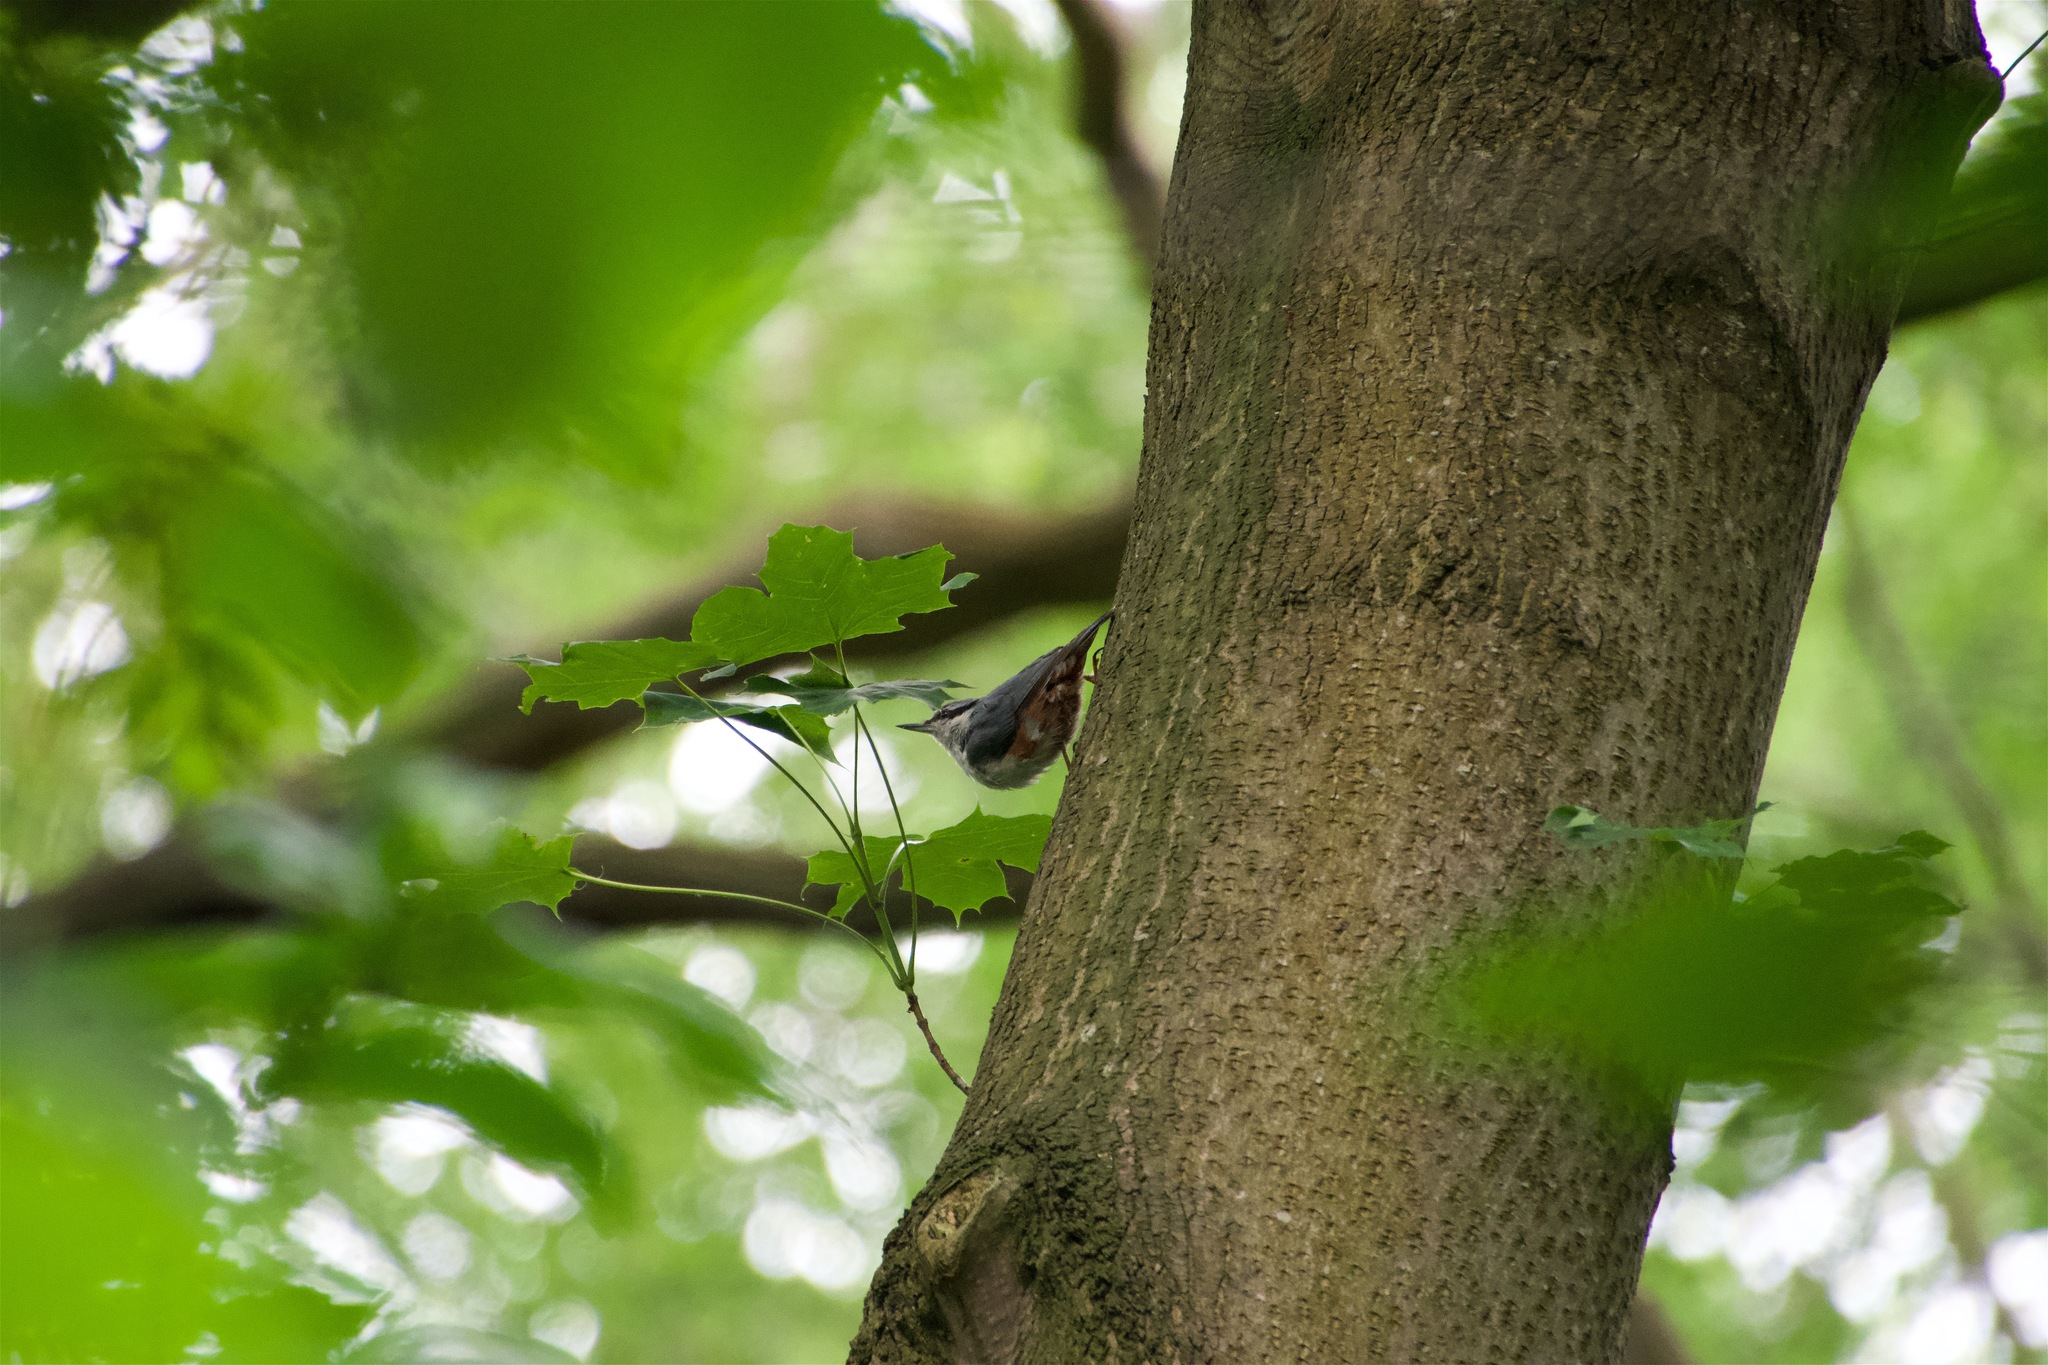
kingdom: Animalia
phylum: Chordata
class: Aves
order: Passeriformes
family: Sittidae
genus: Sitta
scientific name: Sitta europaea
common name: Eurasian nuthatch
